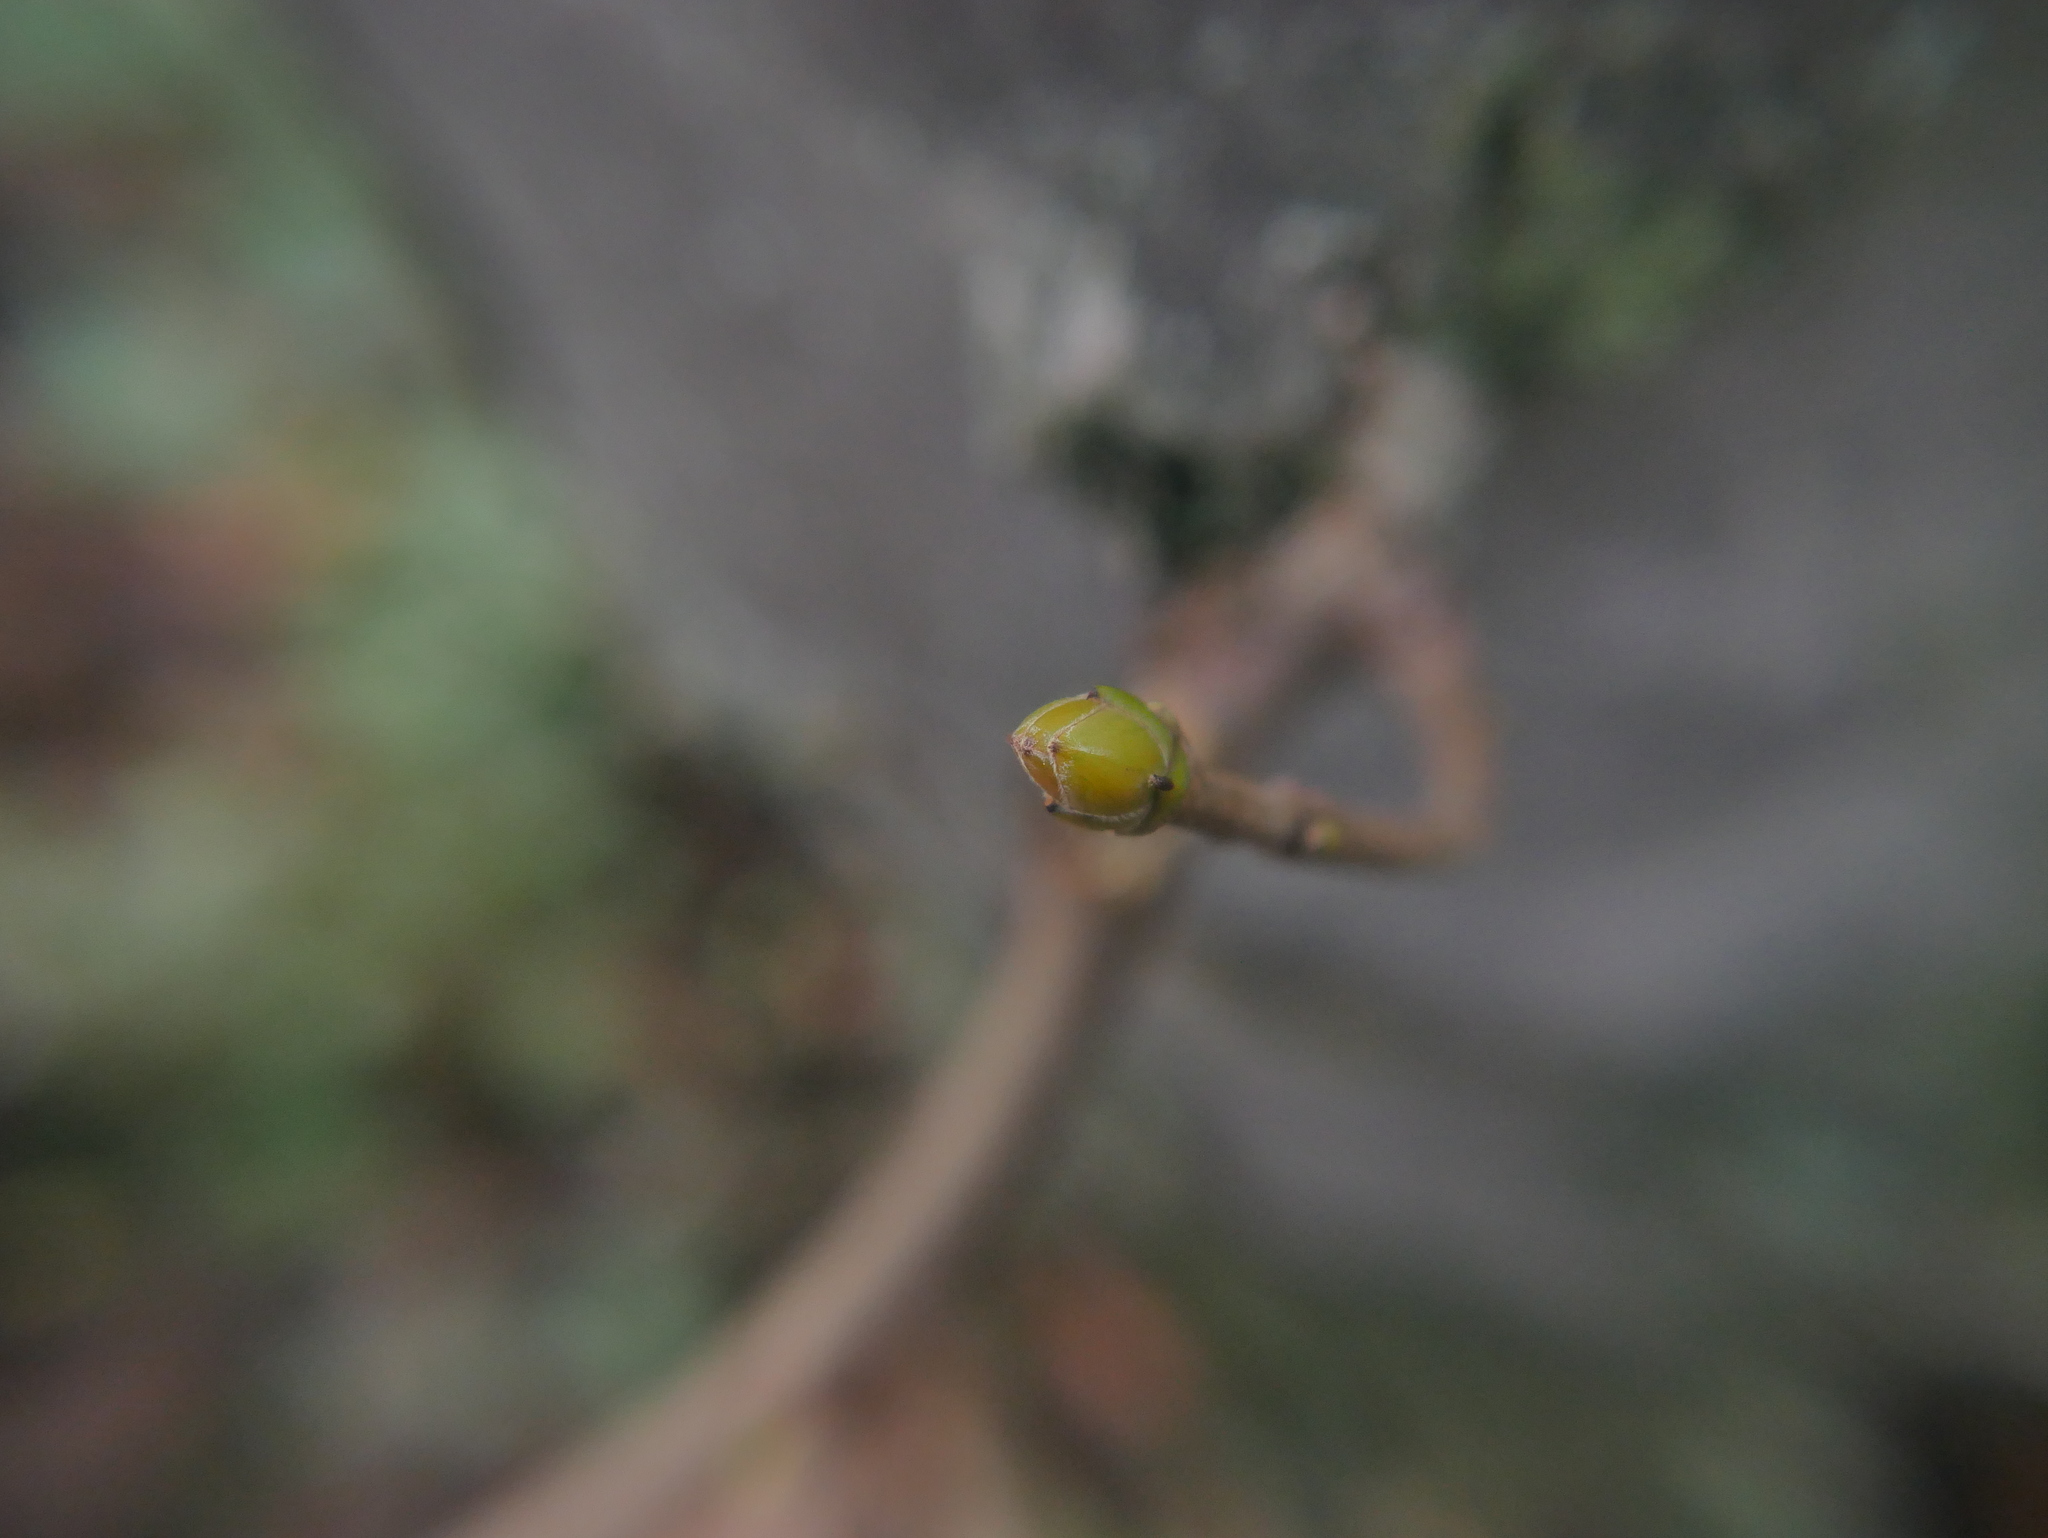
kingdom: Plantae
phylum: Tracheophyta
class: Magnoliopsida
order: Sapindales
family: Sapindaceae
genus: Acer
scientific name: Acer pseudoplatanus
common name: Sycamore
